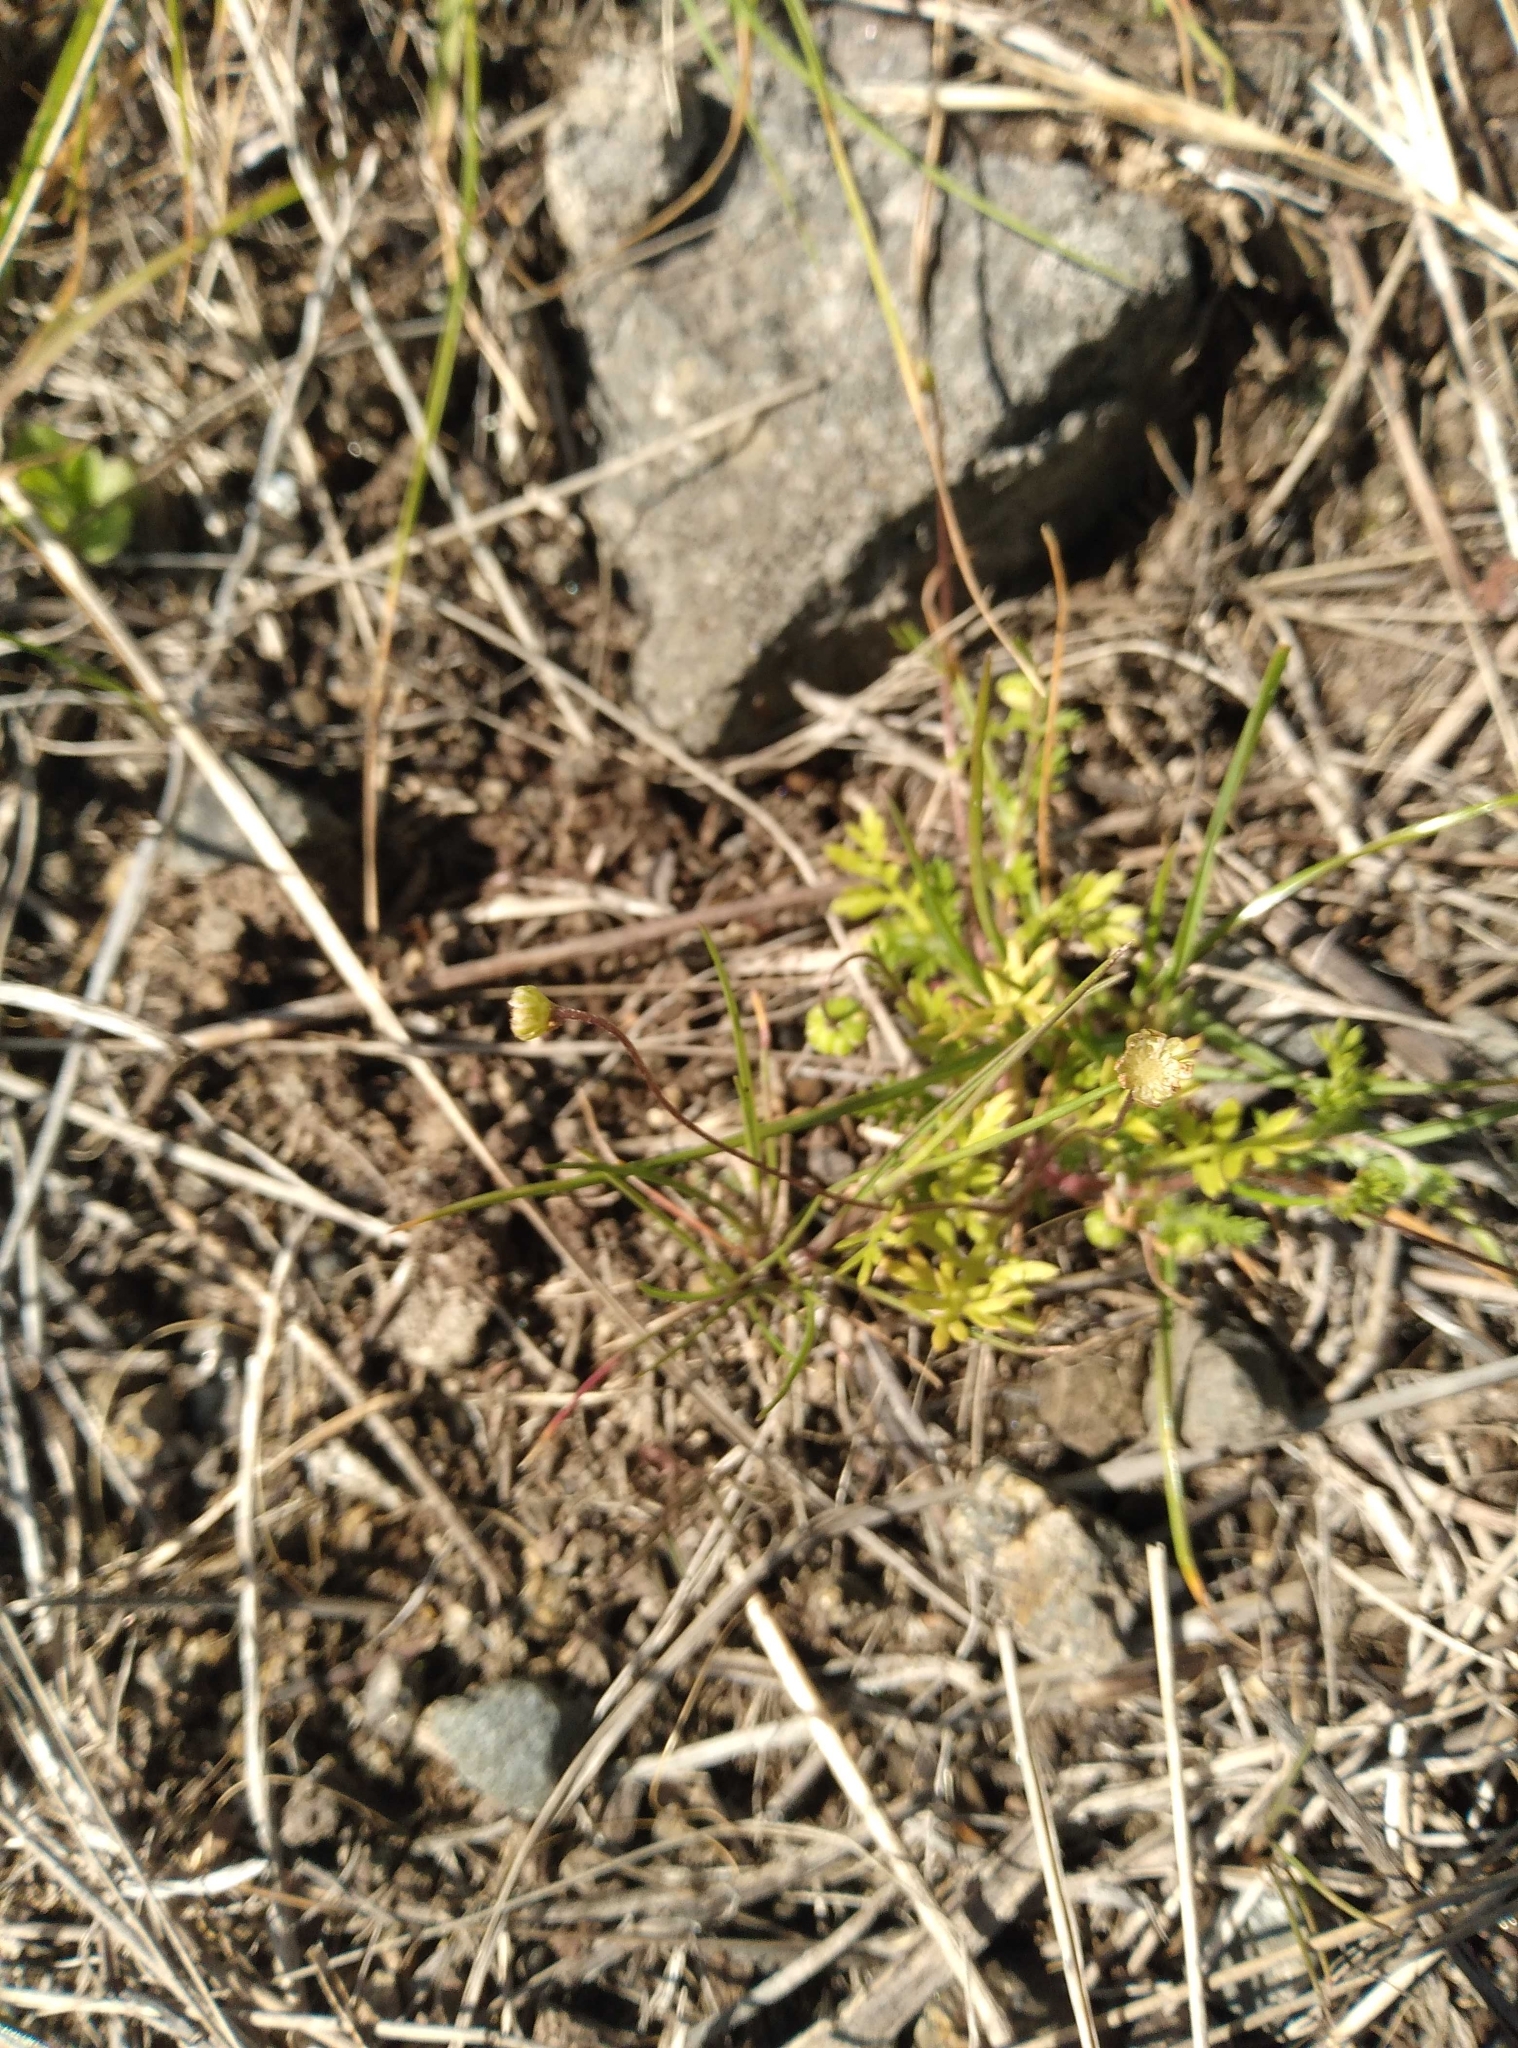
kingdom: Plantae
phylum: Tracheophyta
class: Magnoliopsida
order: Asterales
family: Asteraceae
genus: Cotula
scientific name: Cotula australis
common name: Australian waterbuttons
